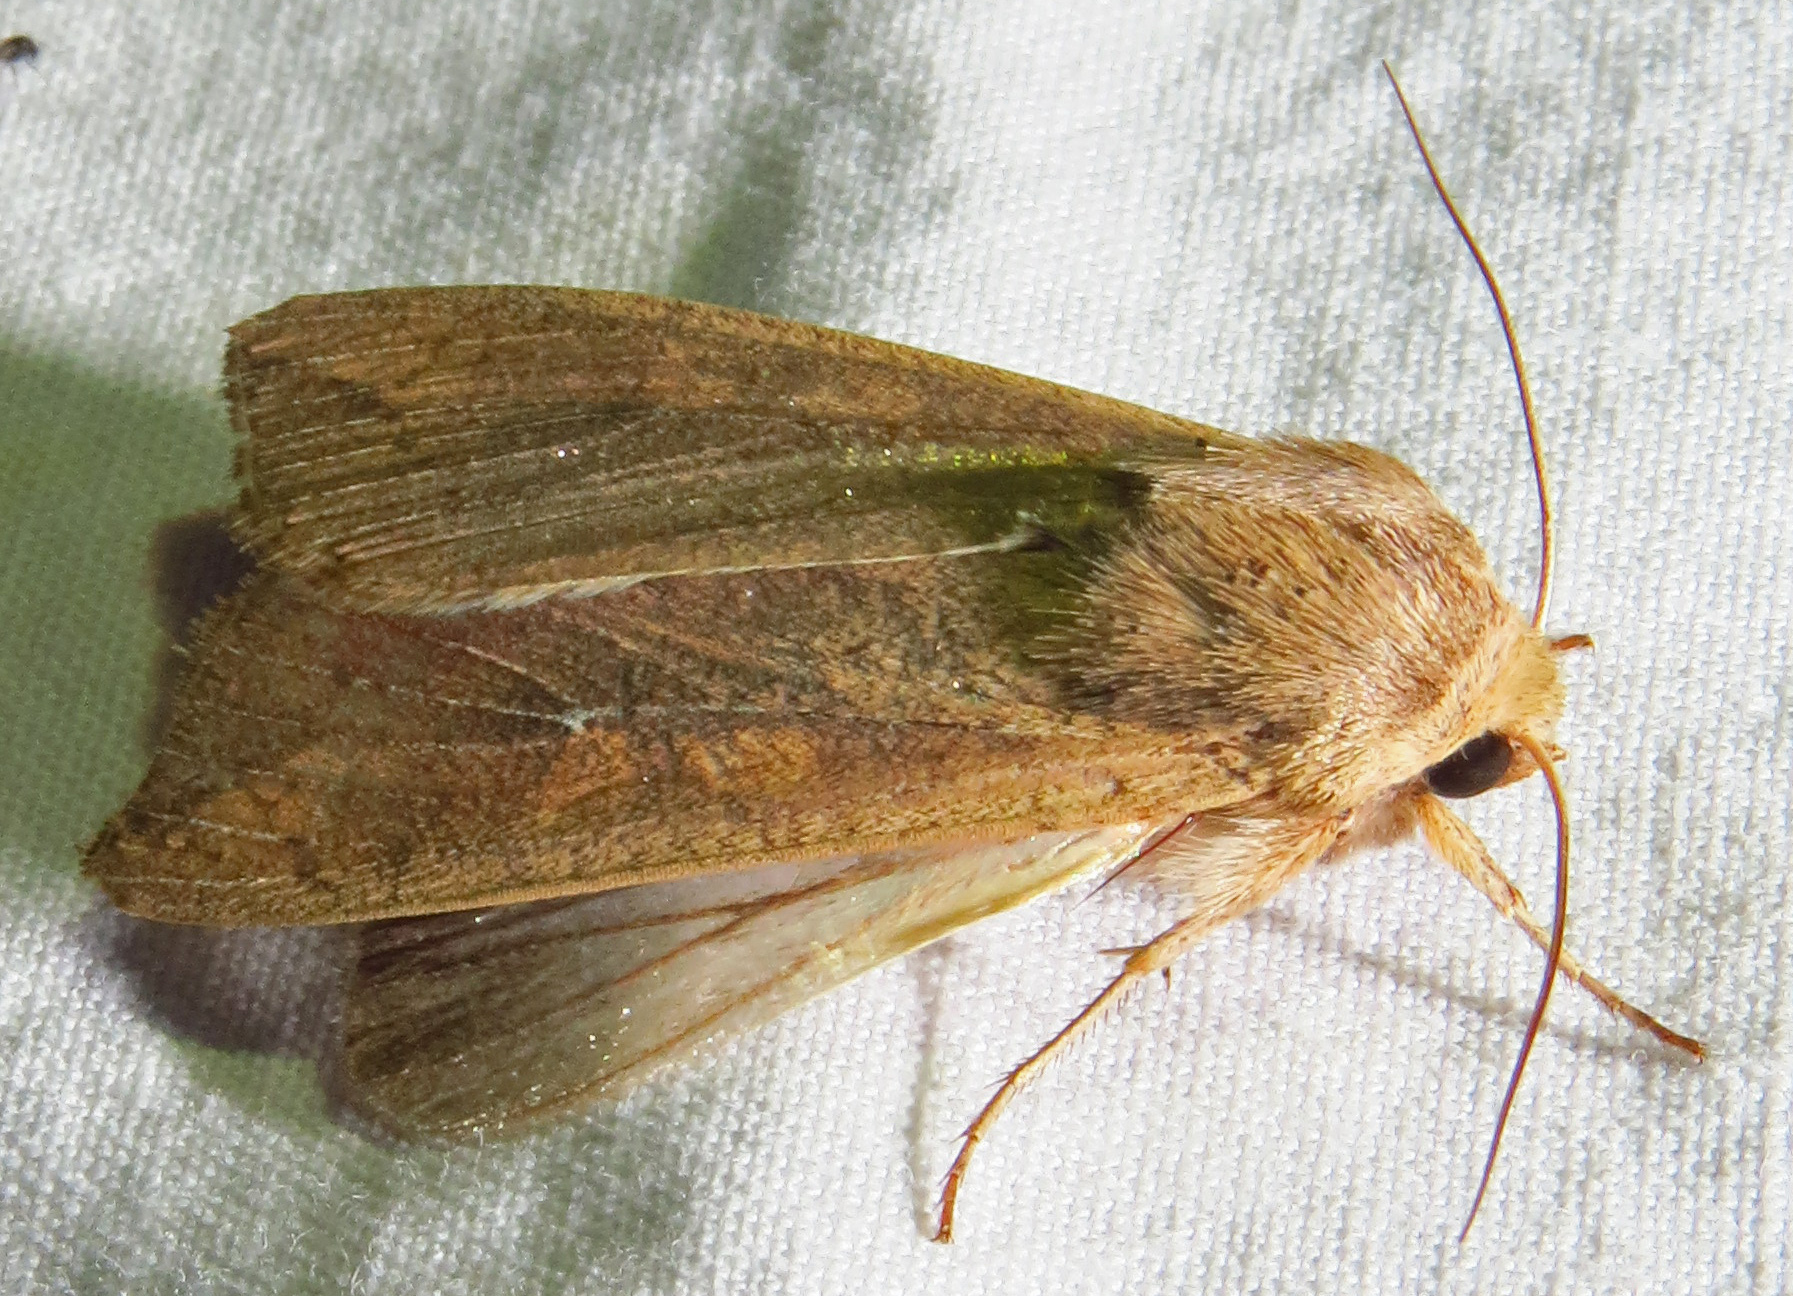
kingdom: Animalia
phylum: Arthropoda
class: Insecta
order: Lepidoptera
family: Noctuidae
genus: Mythimna
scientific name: Mythimna unipuncta
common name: White-speck
